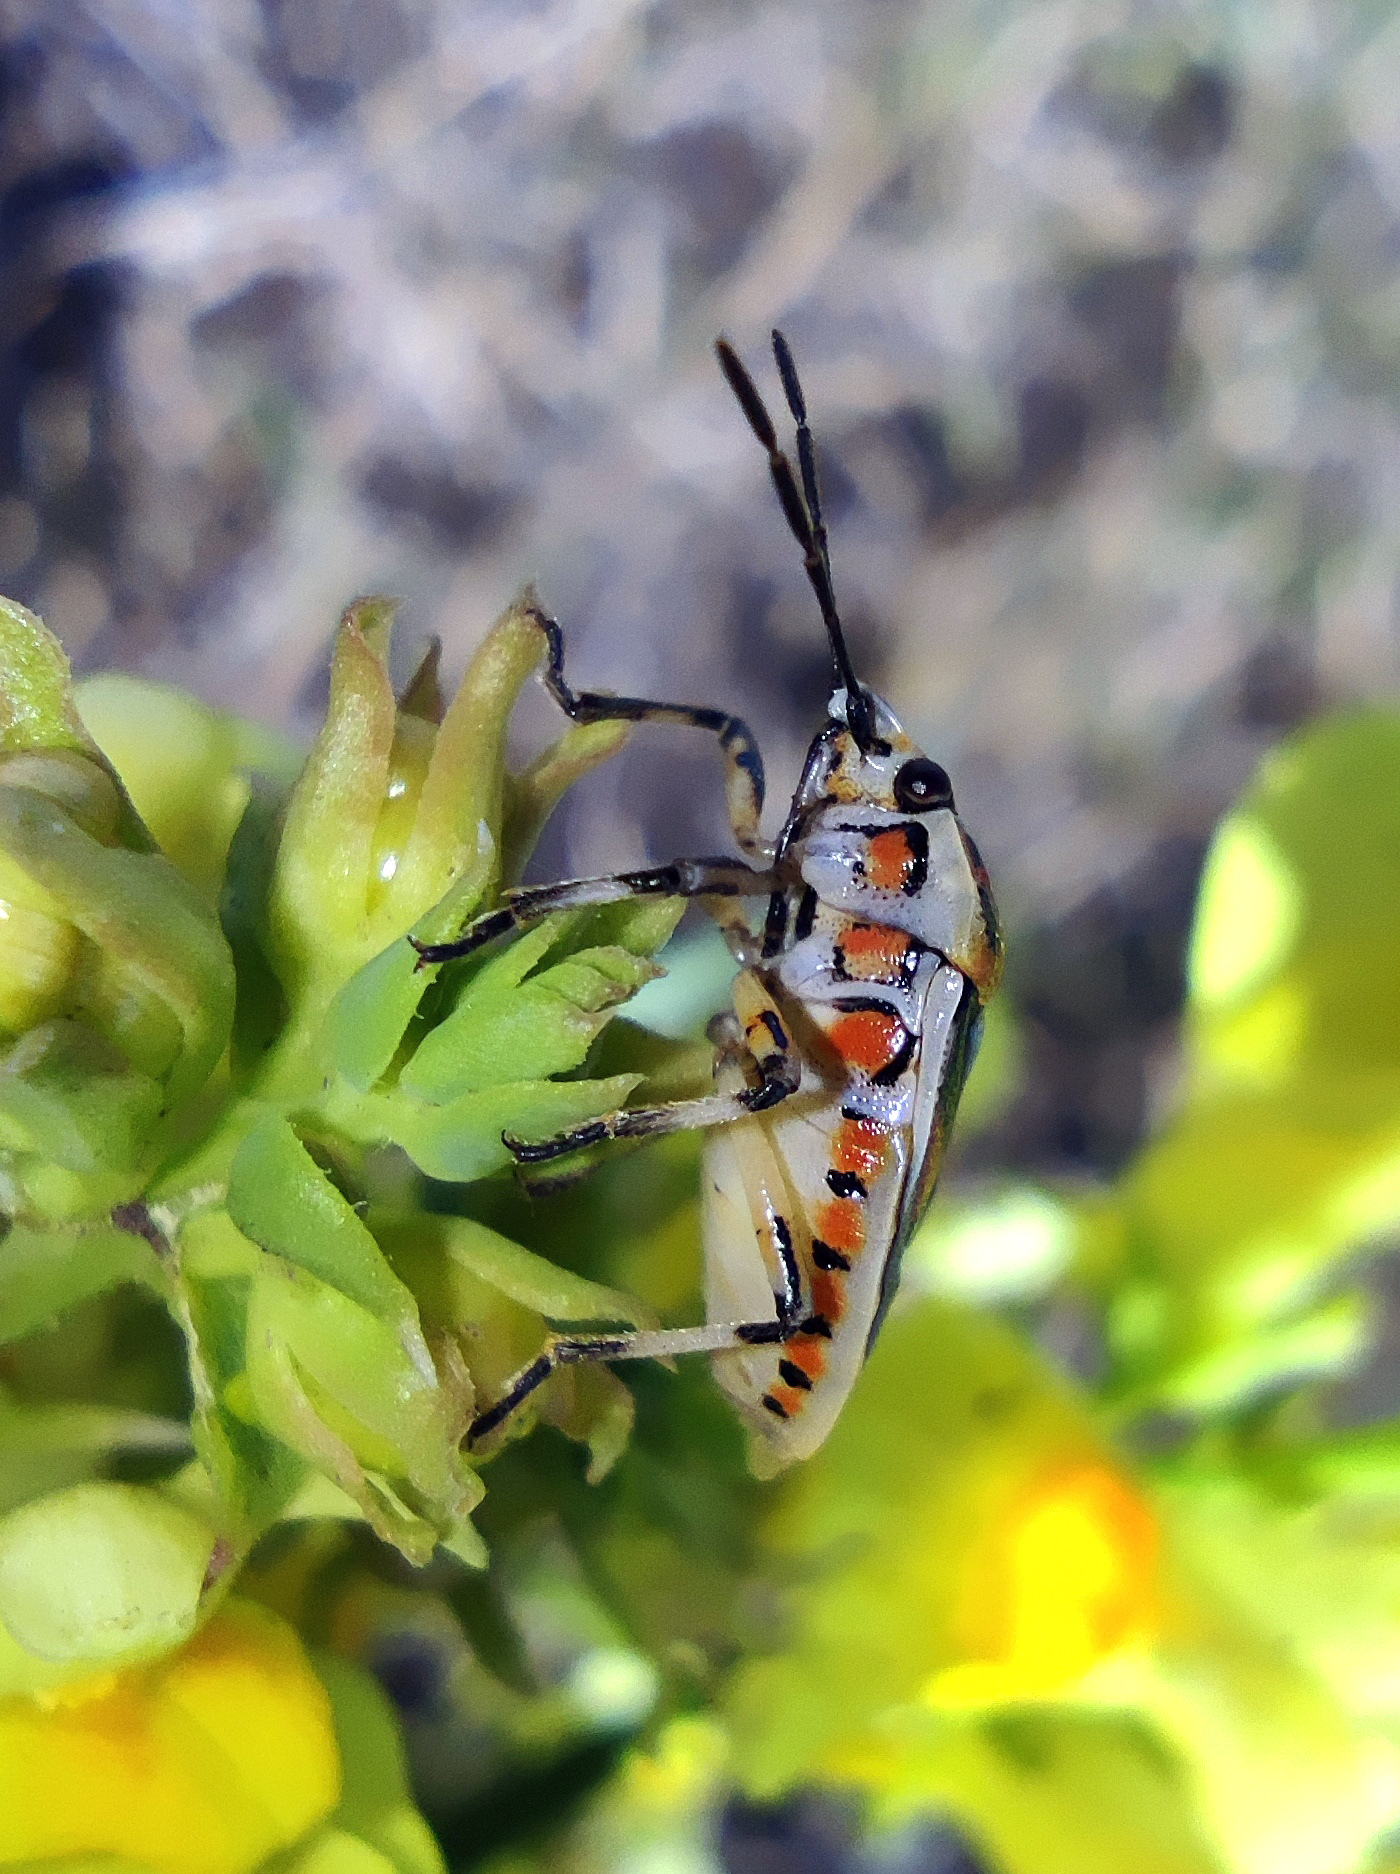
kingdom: Animalia
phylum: Arthropoda
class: Insecta
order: Hemiptera
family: Pentatomidae
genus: Eurydema
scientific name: Eurydema ornata
